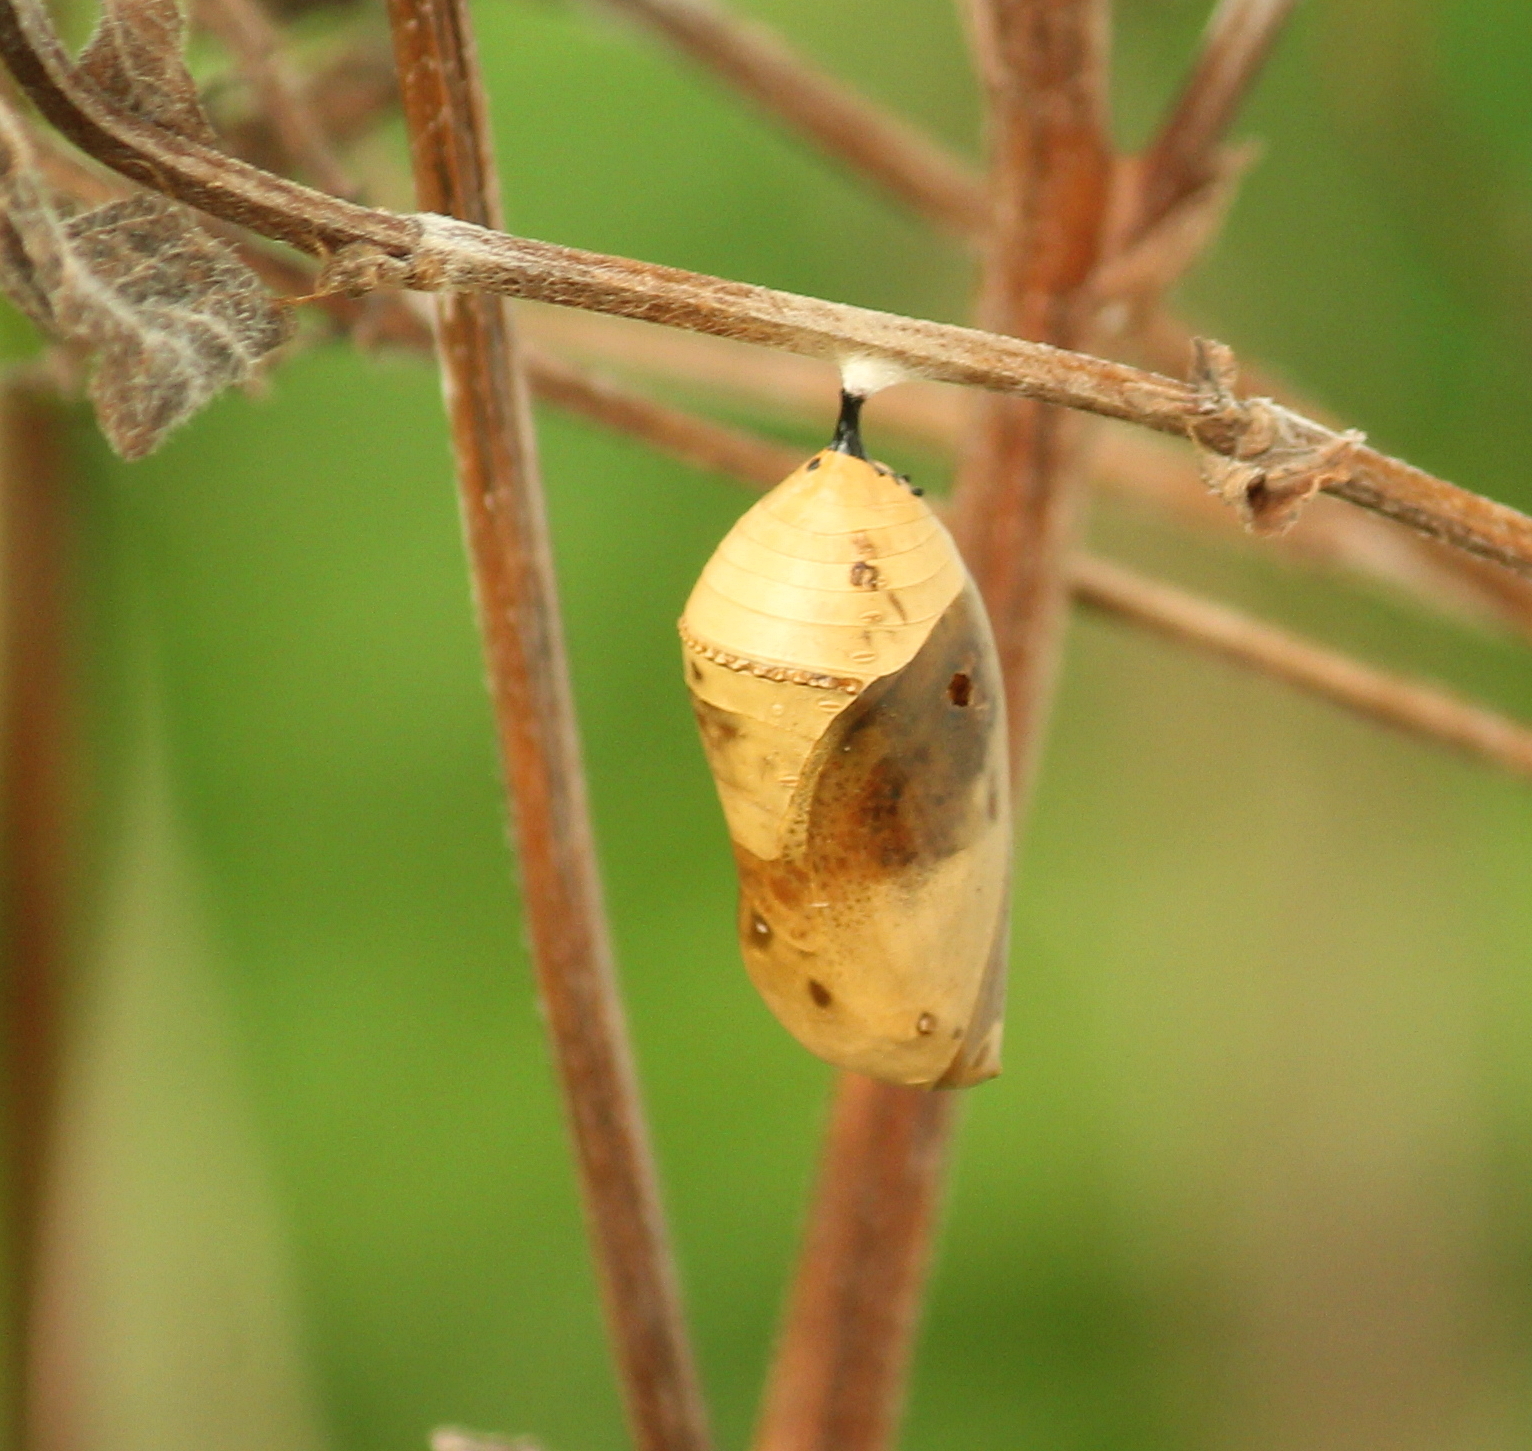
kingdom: Animalia
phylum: Arthropoda
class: Insecta
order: Lepidoptera
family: Nymphalidae
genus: Danaus
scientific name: Danaus plexippus
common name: Monarch
